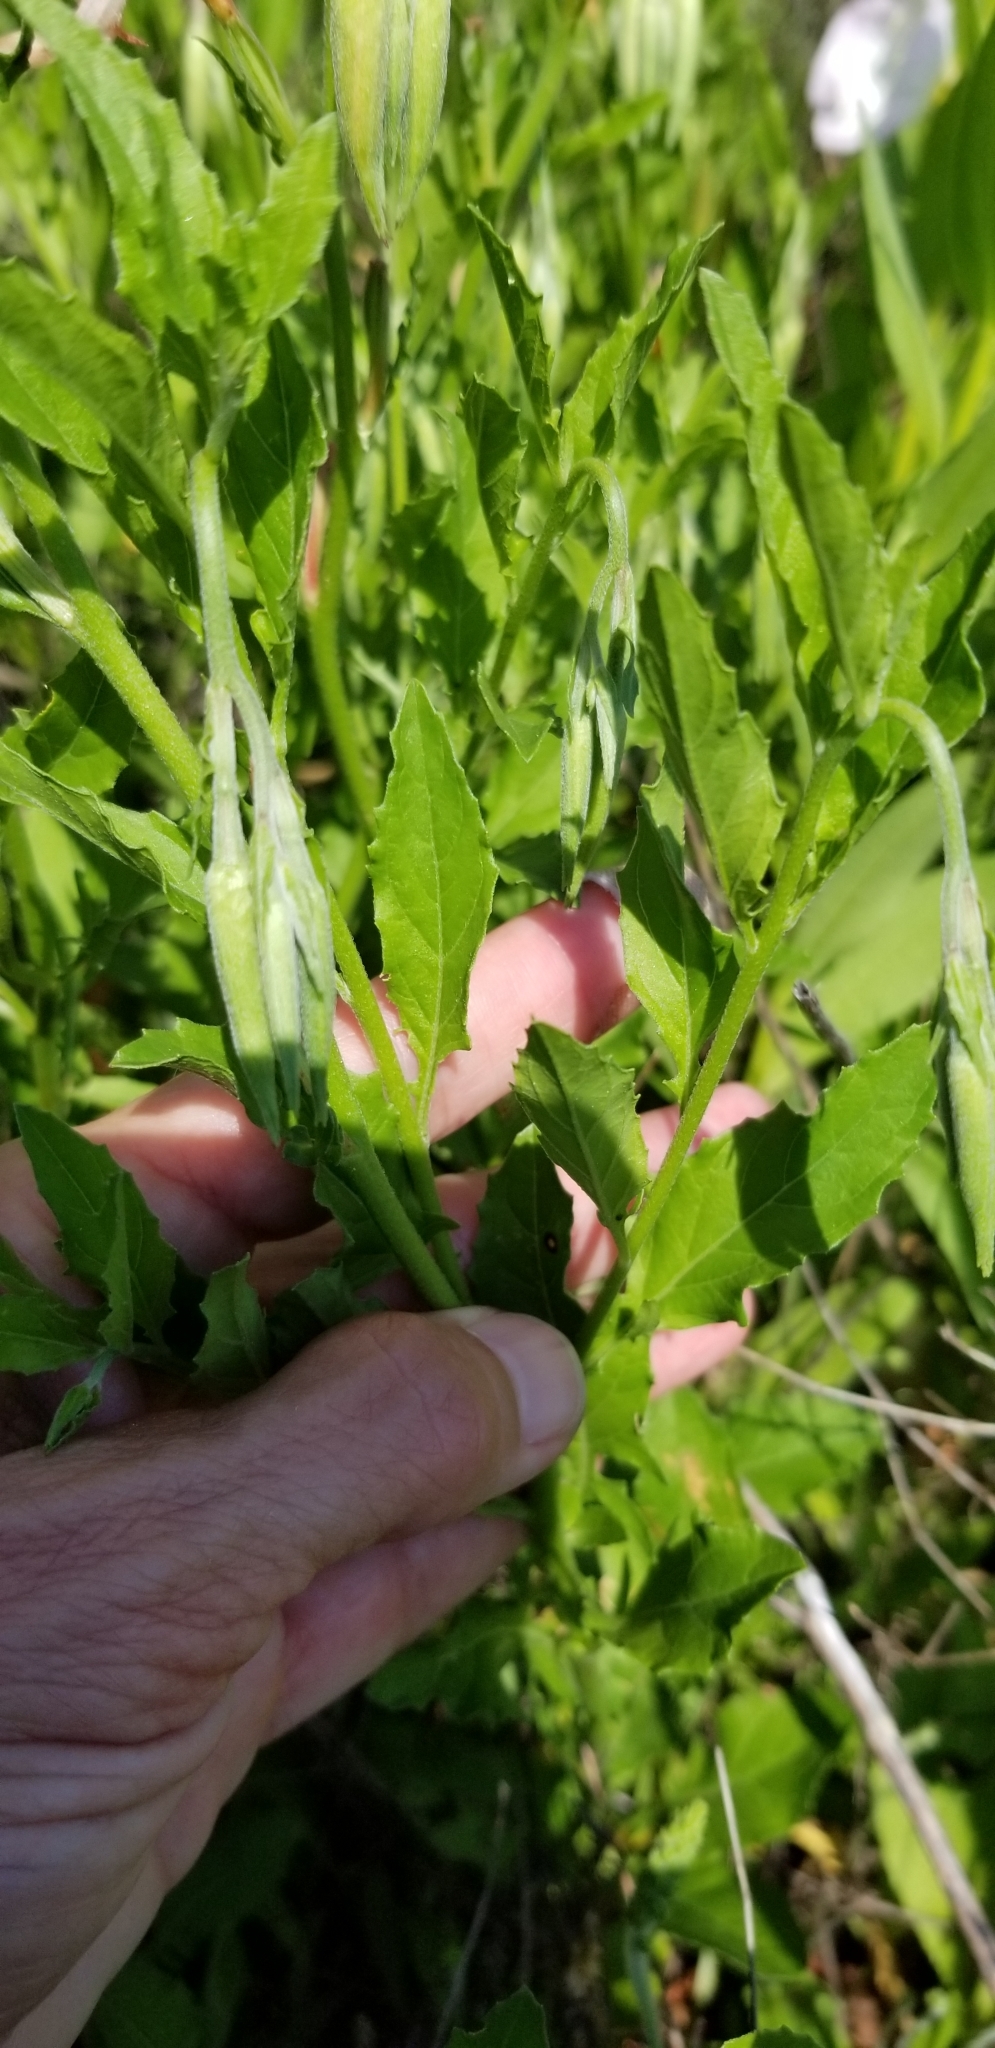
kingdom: Plantae
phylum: Tracheophyta
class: Magnoliopsida
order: Myrtales
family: Onagraceae
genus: Oenothera
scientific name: Oenothera speciosa
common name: White evening-primrose
